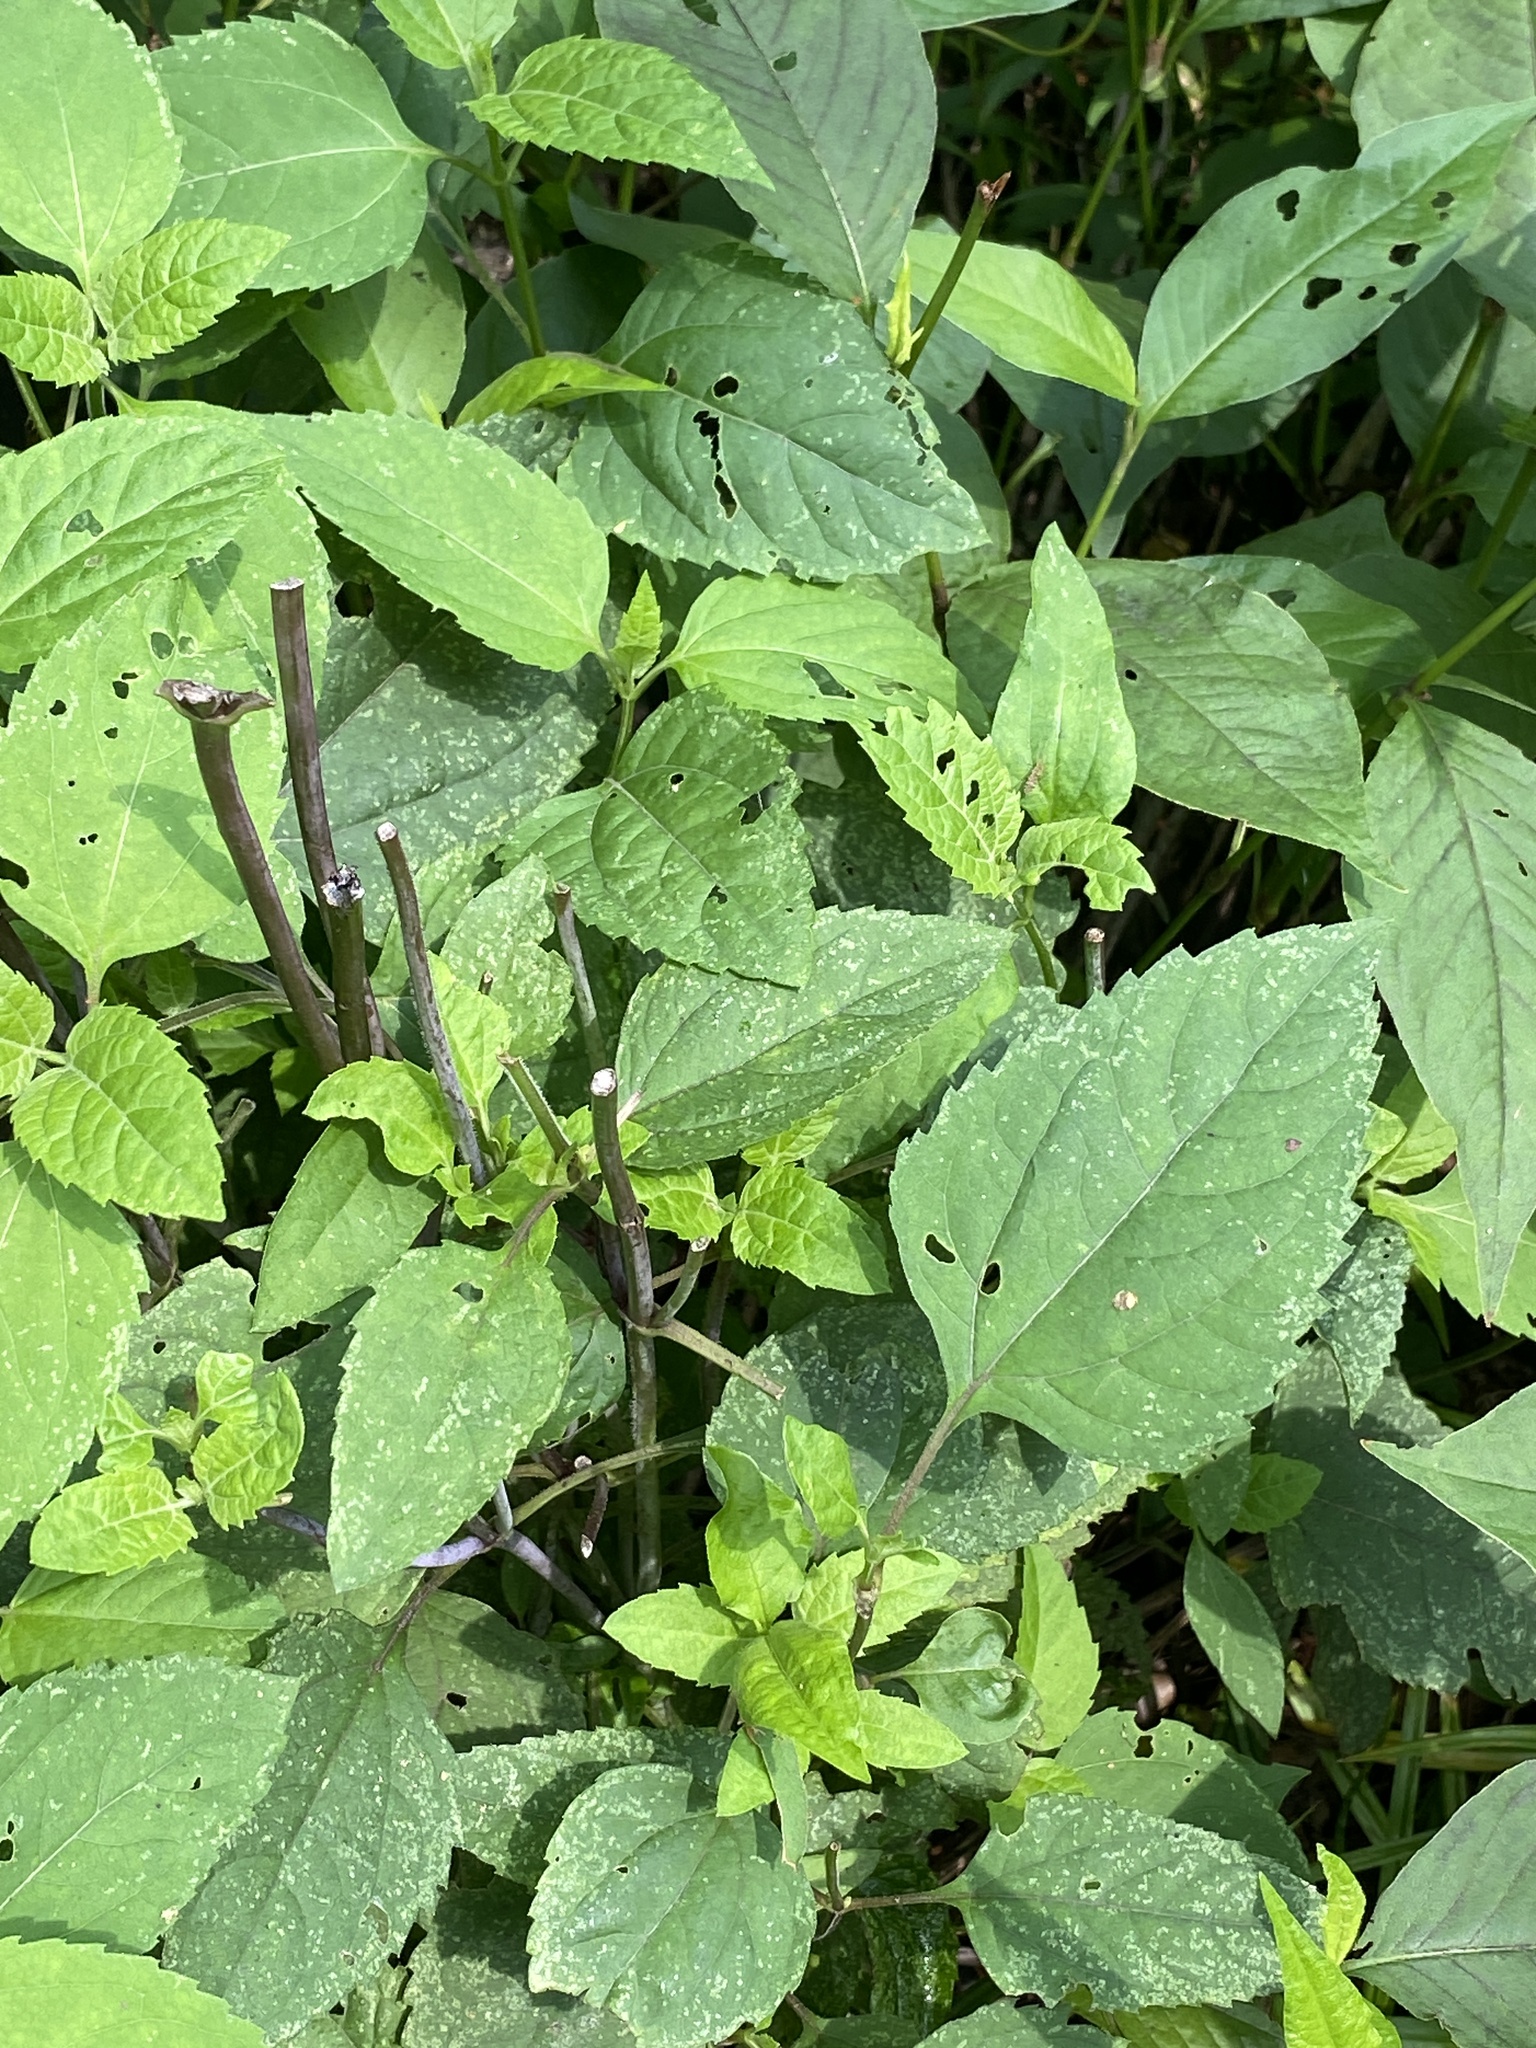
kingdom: Plantae
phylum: Tracheophyta
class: Magnoliopsida
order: Asterales
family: Asteraceae
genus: Ageratina
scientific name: Ageratina altissima
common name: White snakeroot
